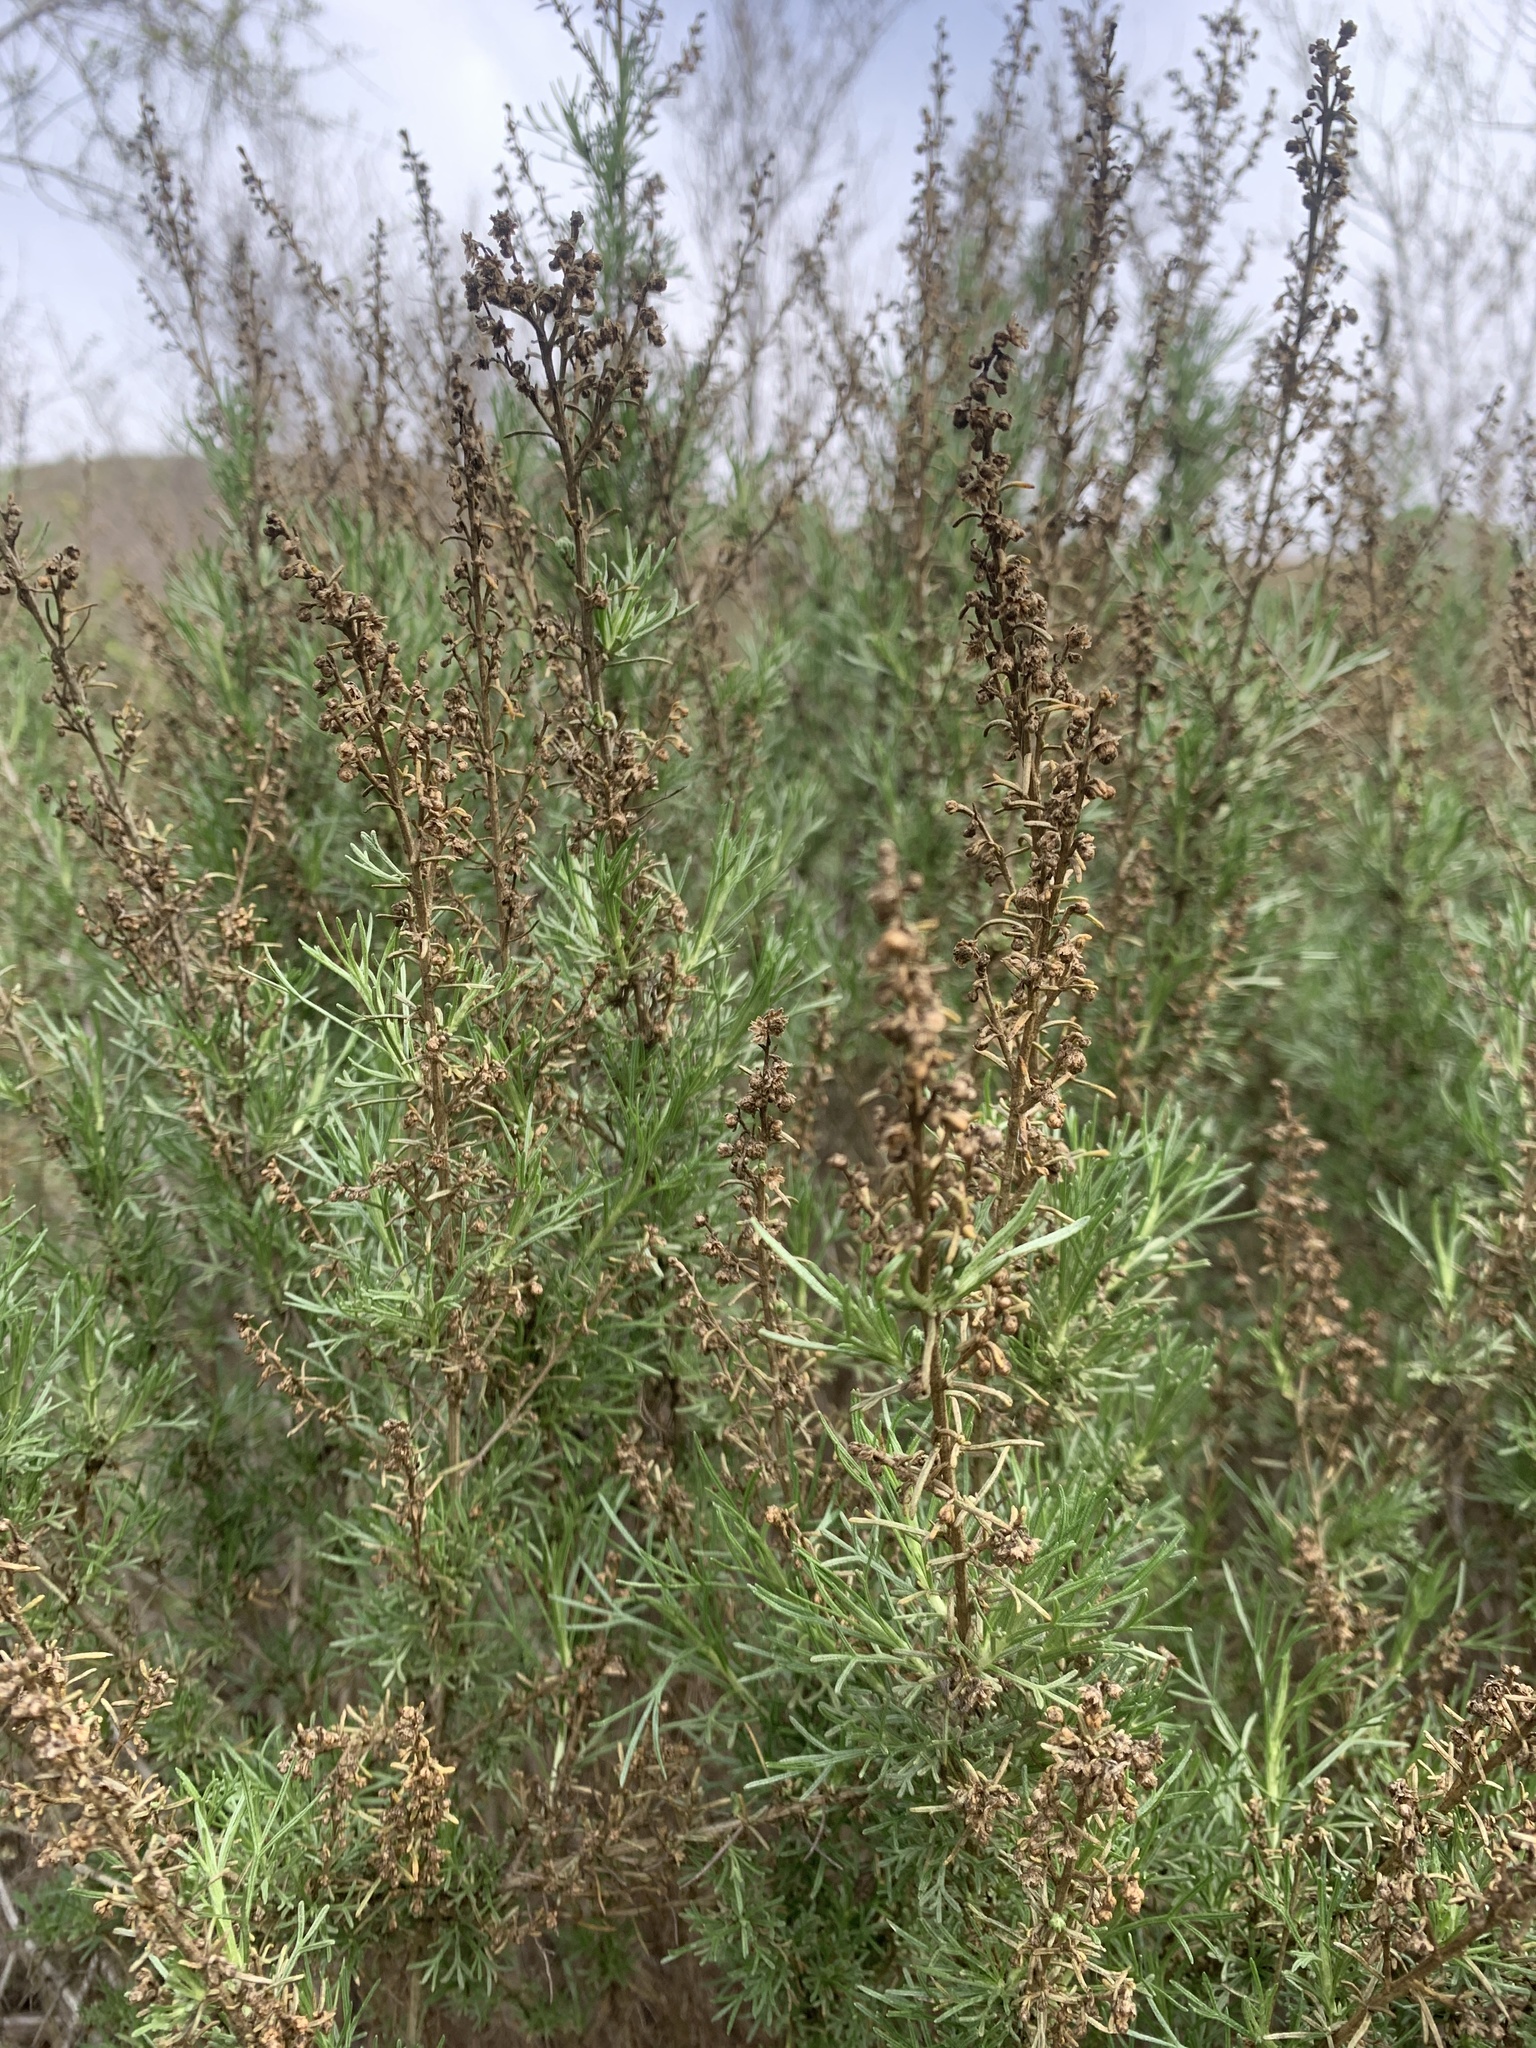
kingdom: Plantae
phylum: Tracheophyta
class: Magnoliopsida
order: Asterales
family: Asteraceae
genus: Artemisia
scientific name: Artemisia californica
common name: California sagebrush
